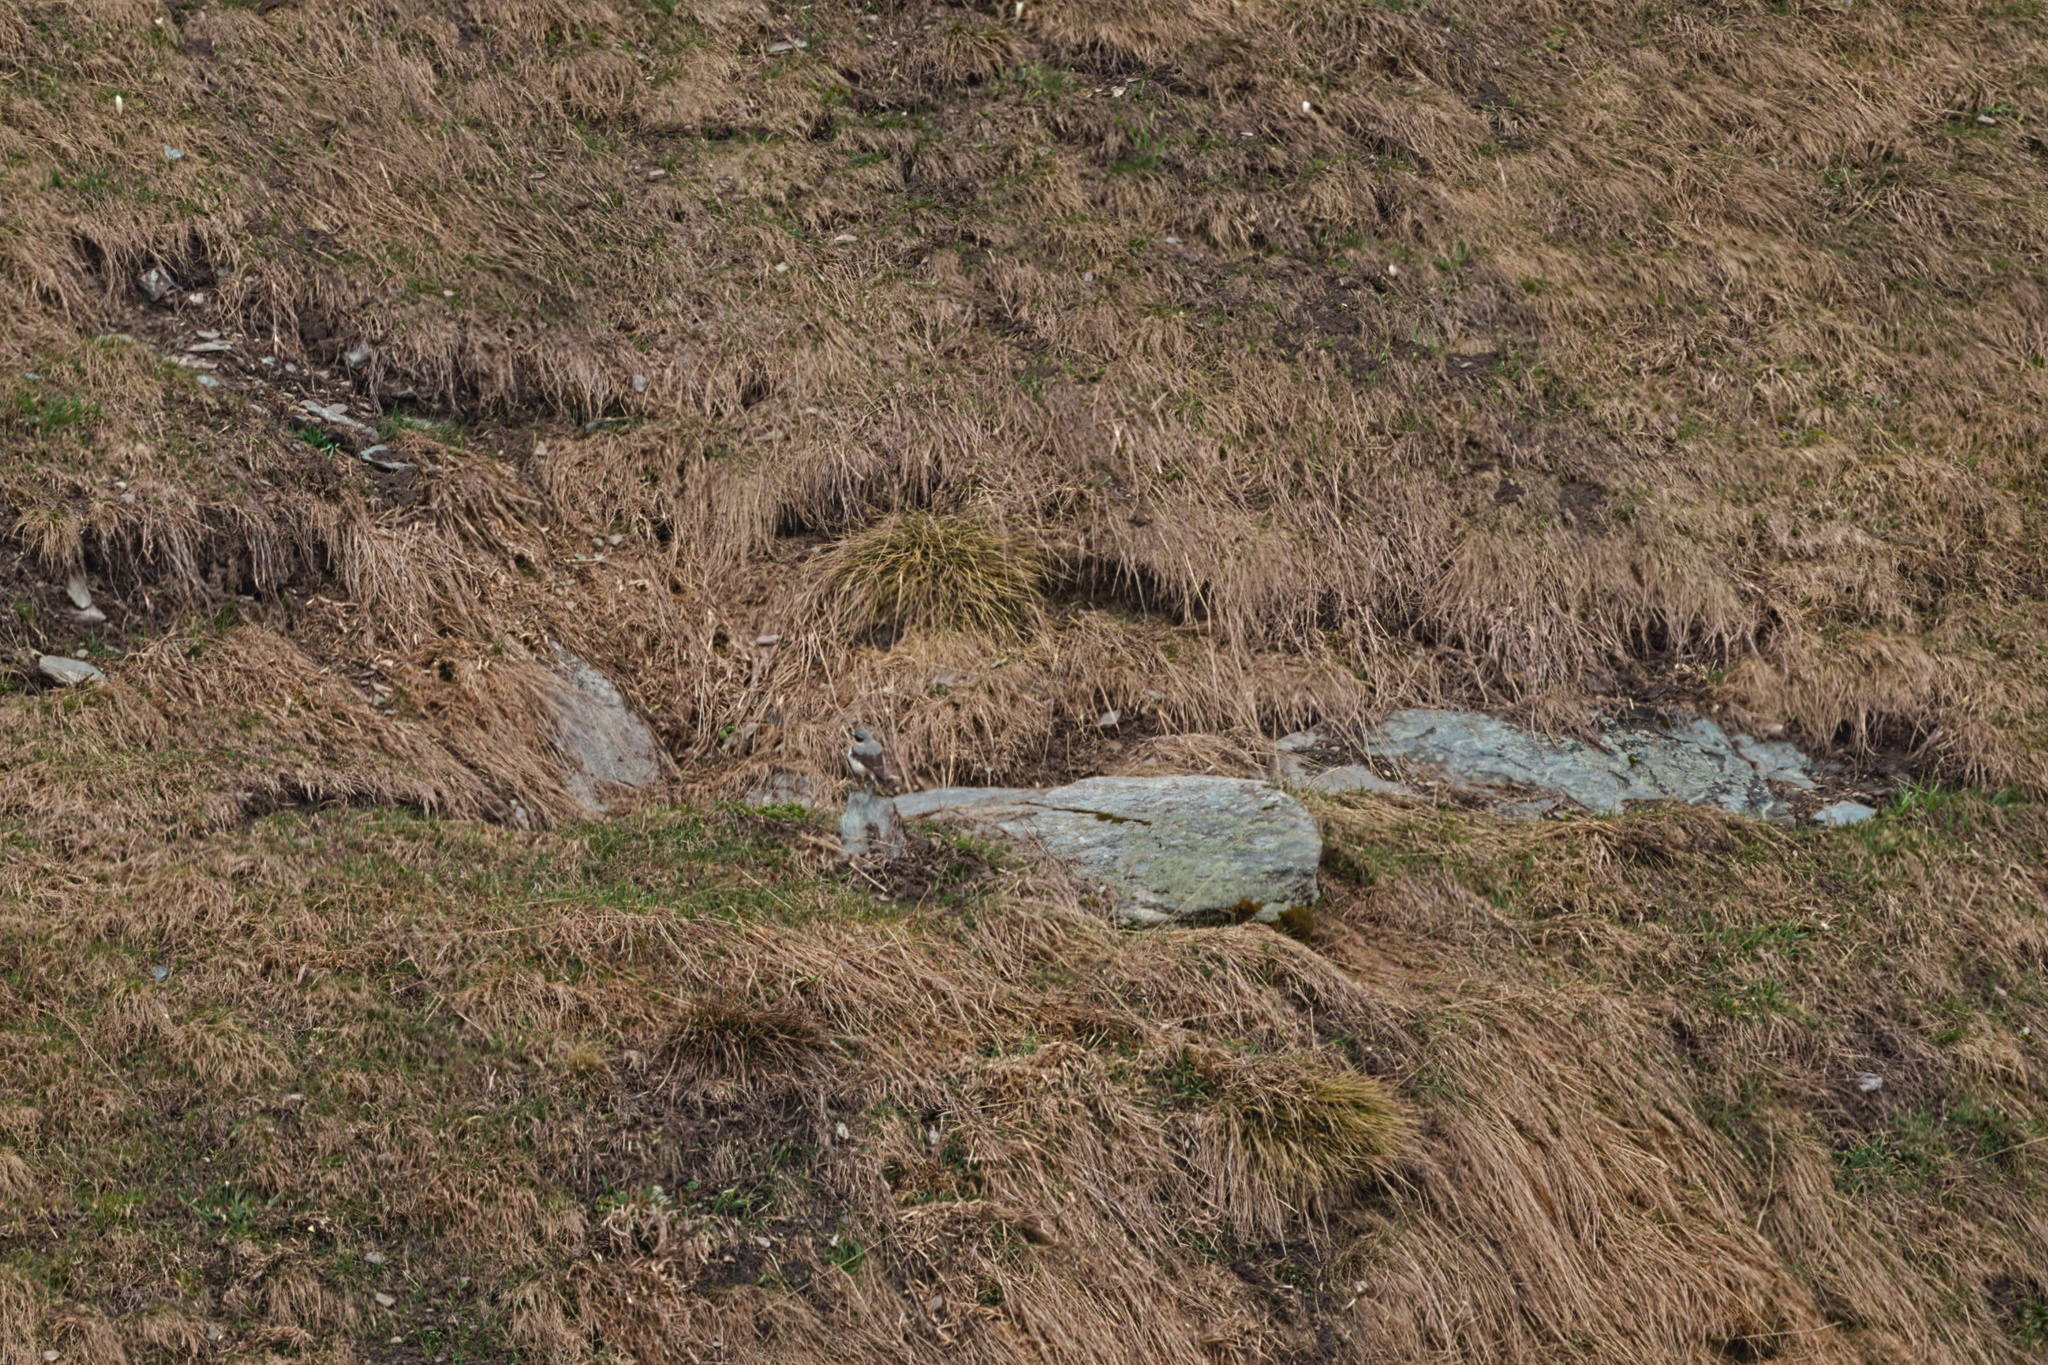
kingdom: Animalia
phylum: Chordata
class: Aves
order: Passeriformes
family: Muscicapidae
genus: Oenanthe
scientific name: Oenanthe oenanthe
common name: Northern wheatear
